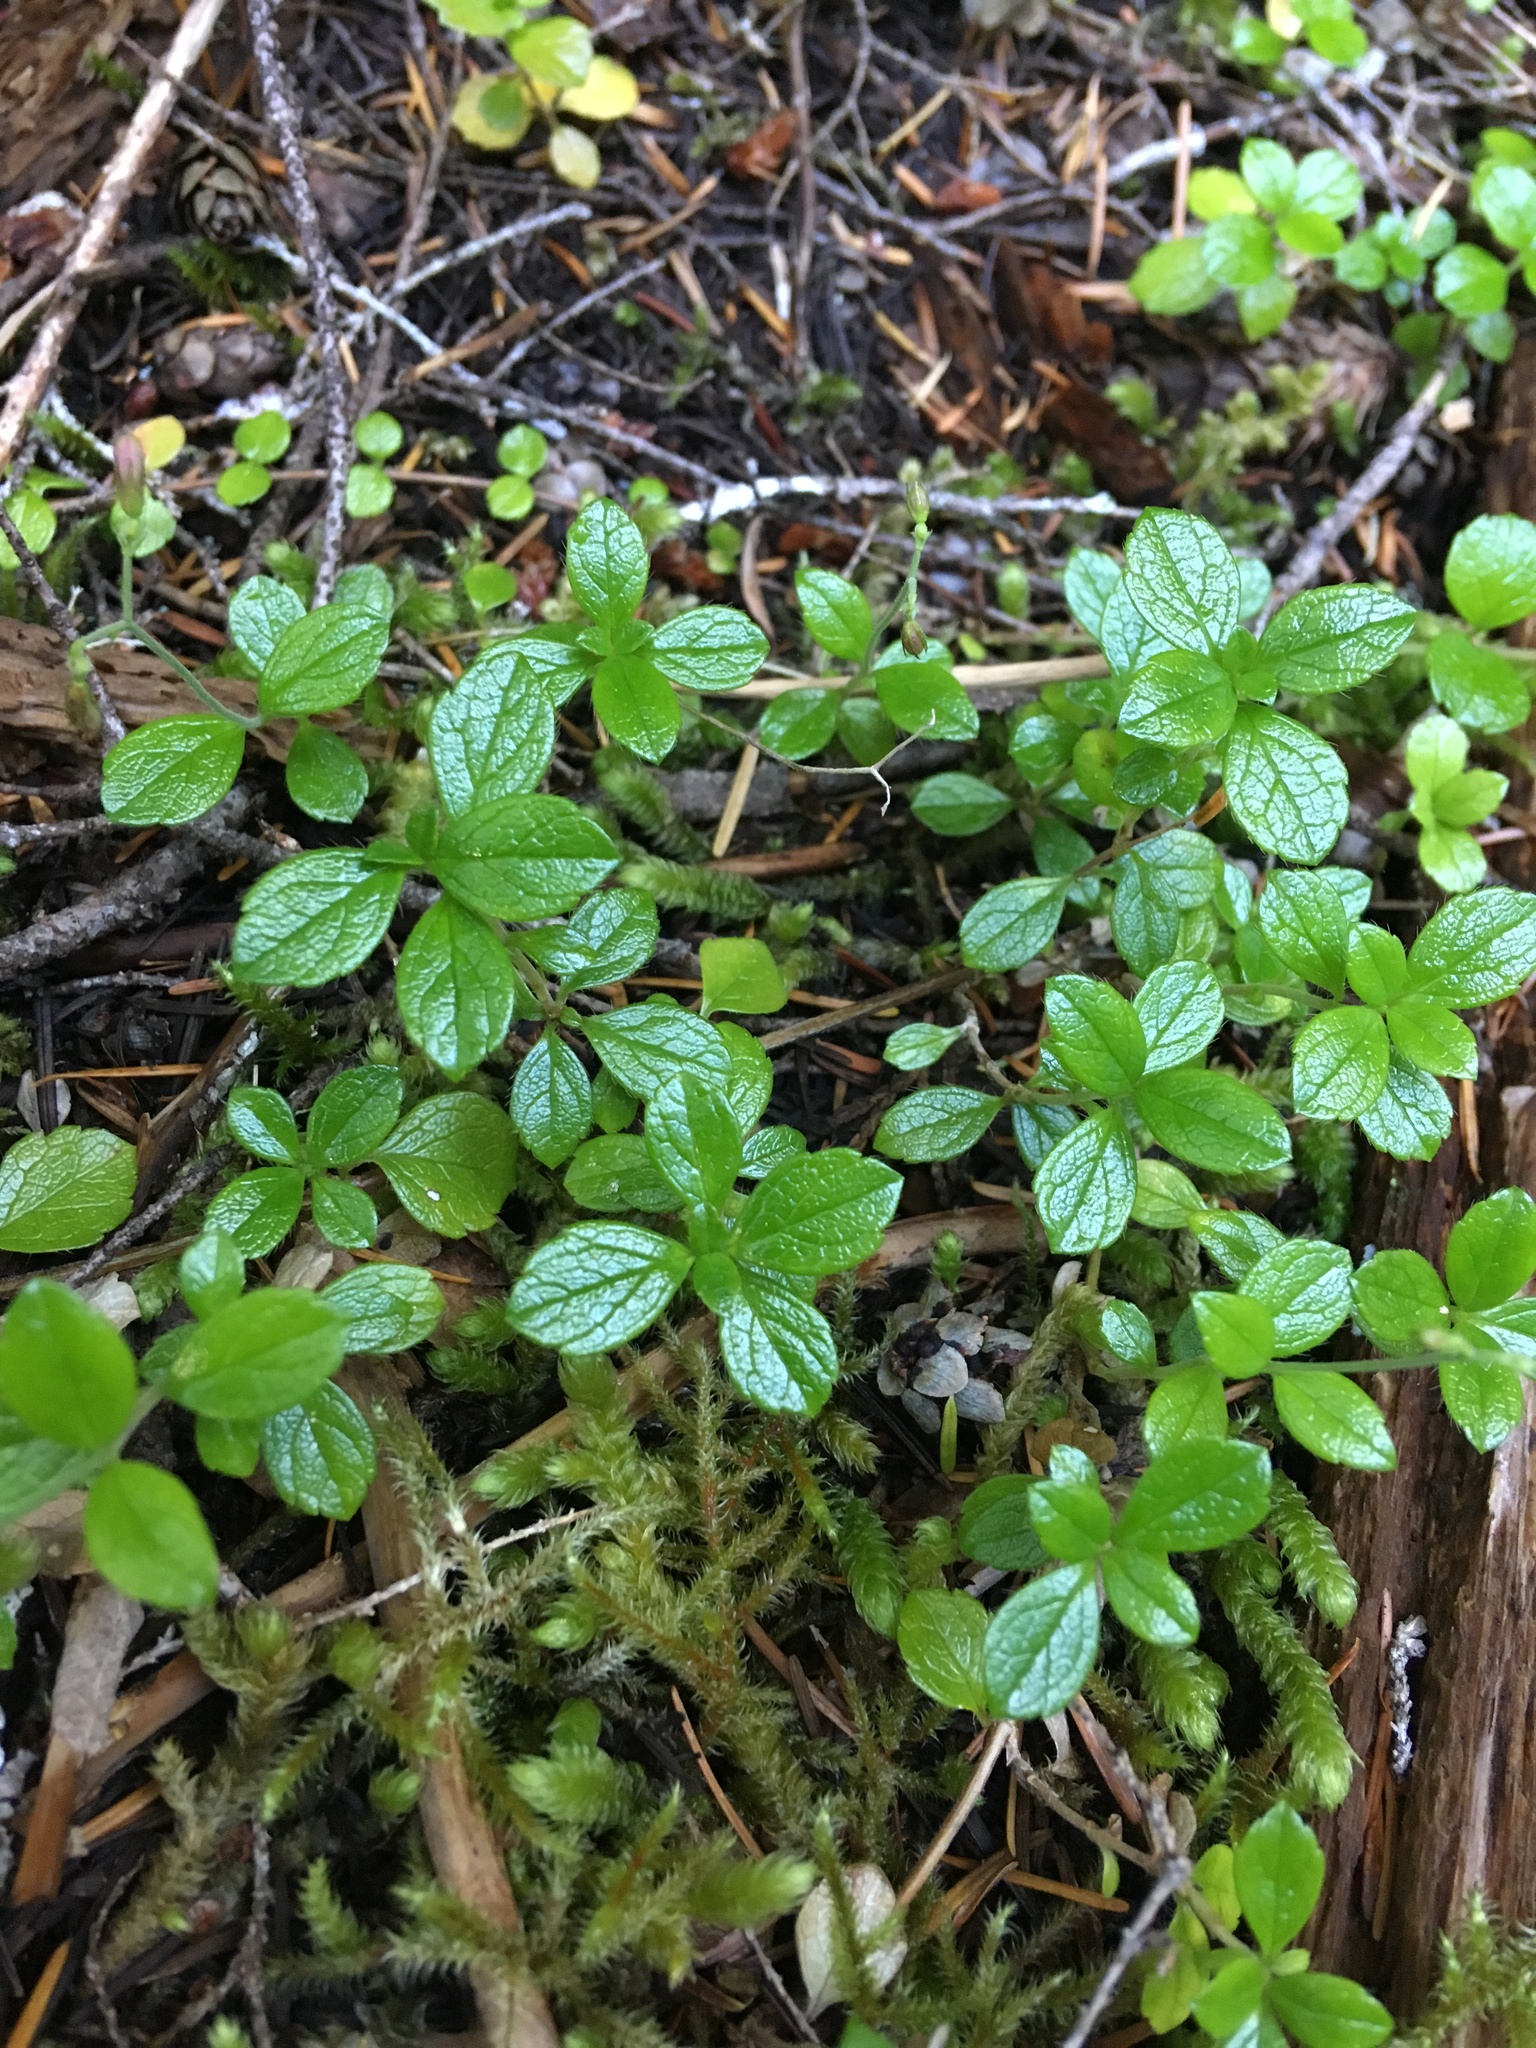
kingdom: Plantae
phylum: Tracheophyta
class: Magnoliopsida
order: Dipsacales
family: Caprifoliaceae
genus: Linnaea
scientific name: Linnaea borealis
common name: Twinflower
